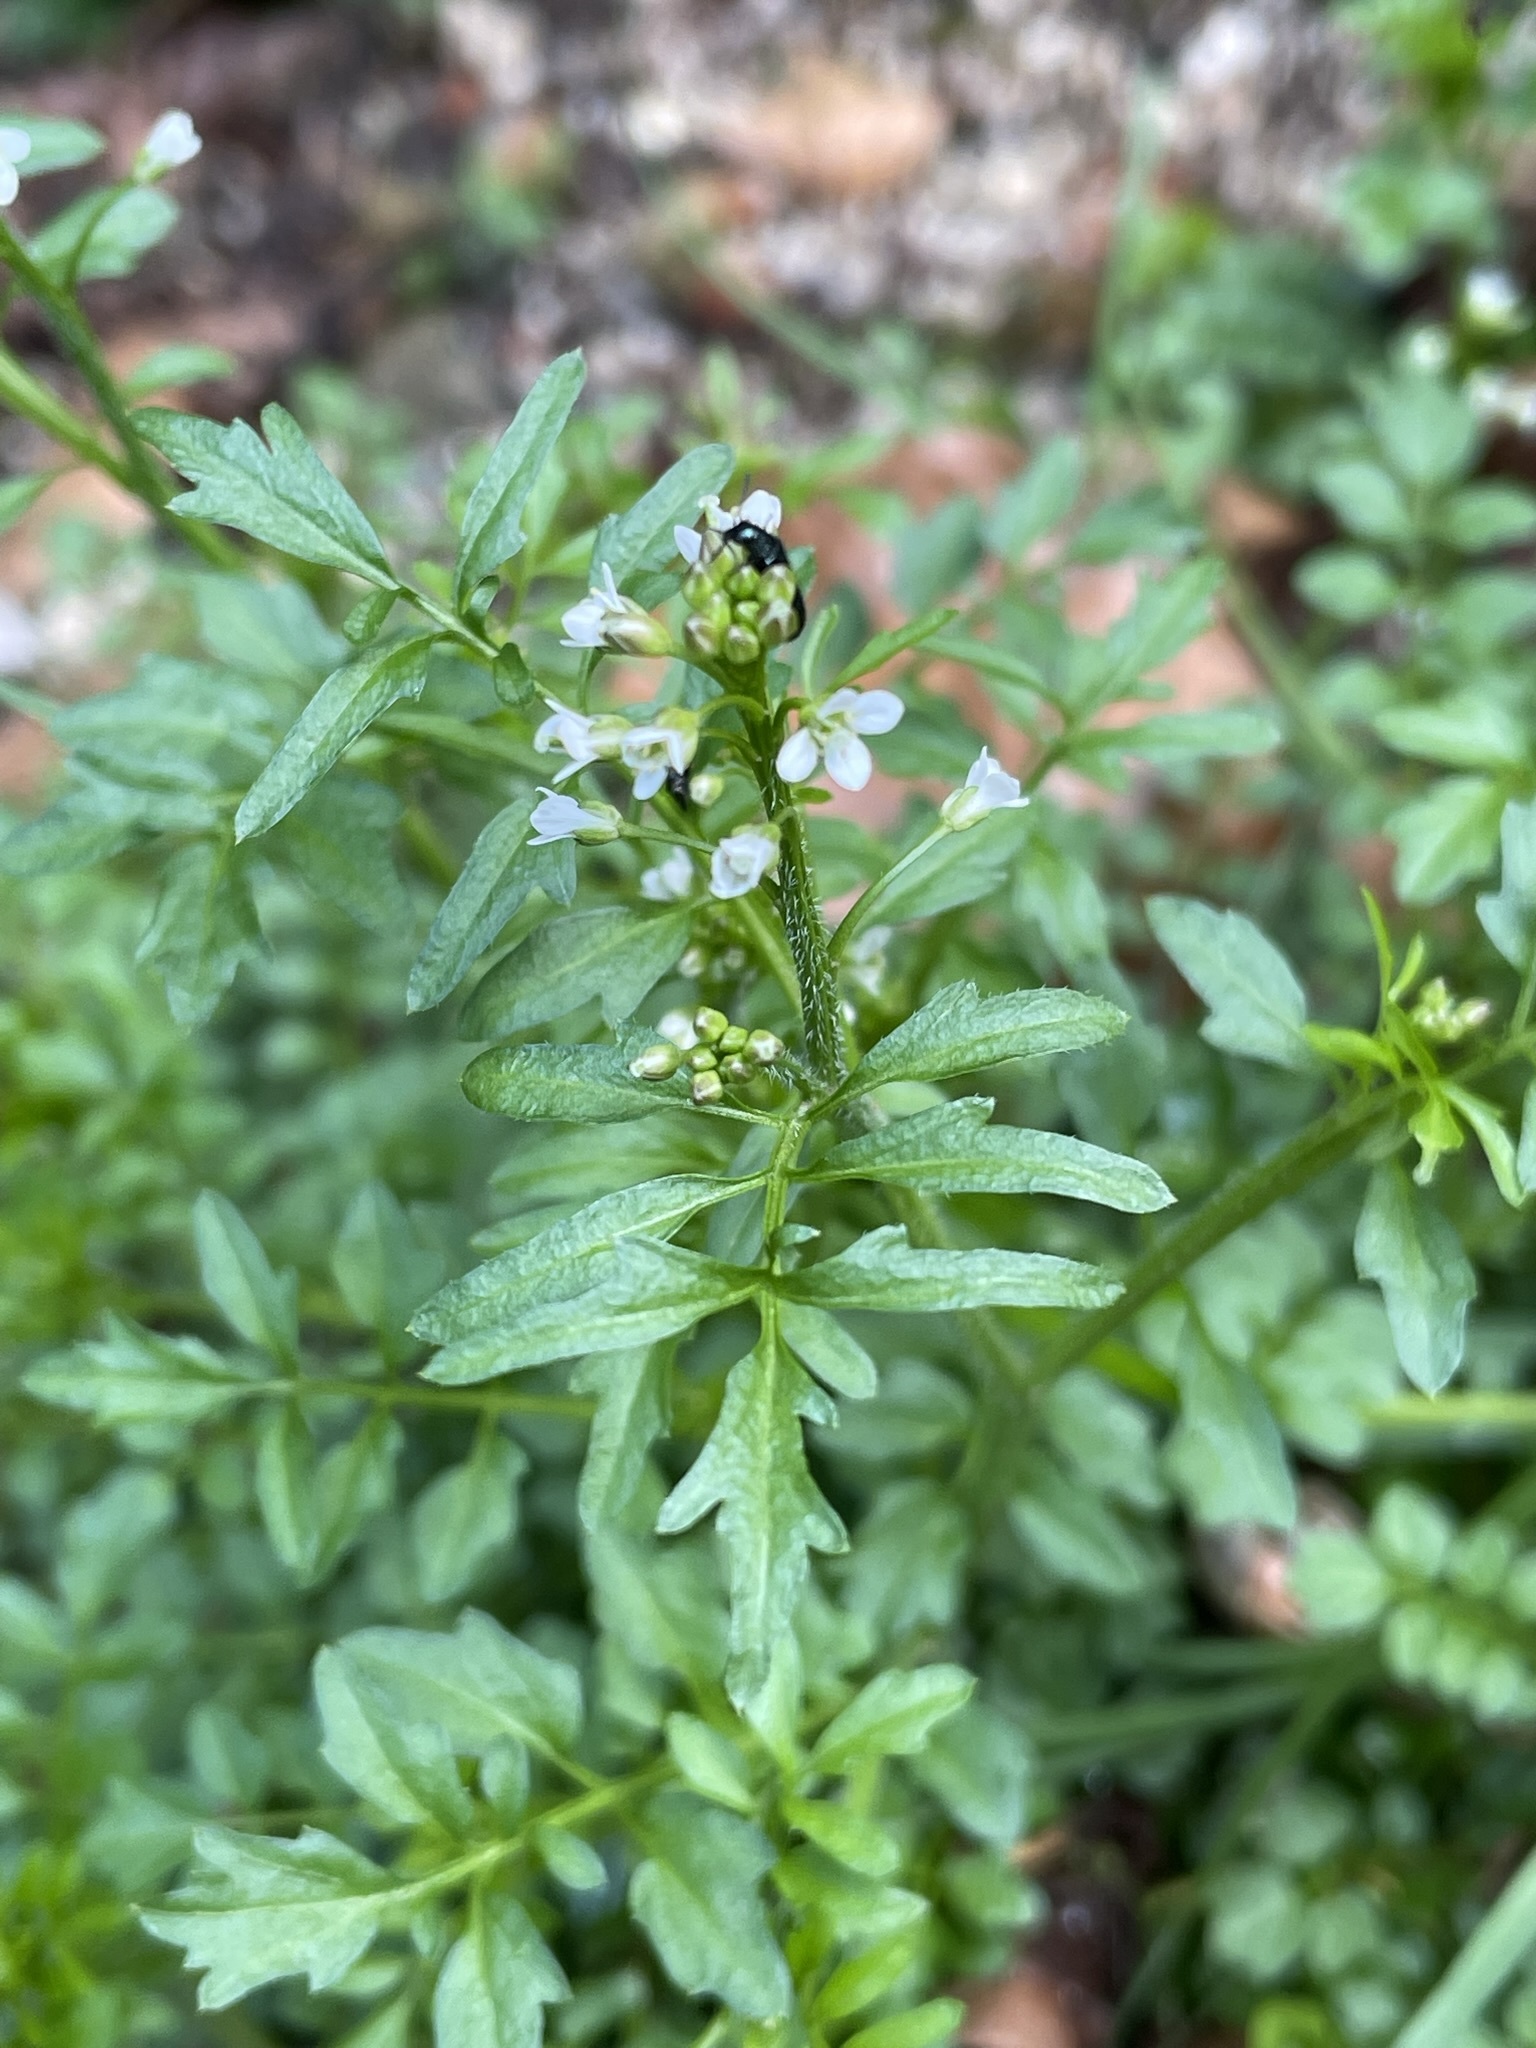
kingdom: Plantae
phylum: Tracheophyta
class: Magnoliopsida
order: Brassicales
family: Brassicaceae
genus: Cardamine
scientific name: Cardamine flexuosa
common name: Woodland bittercress
